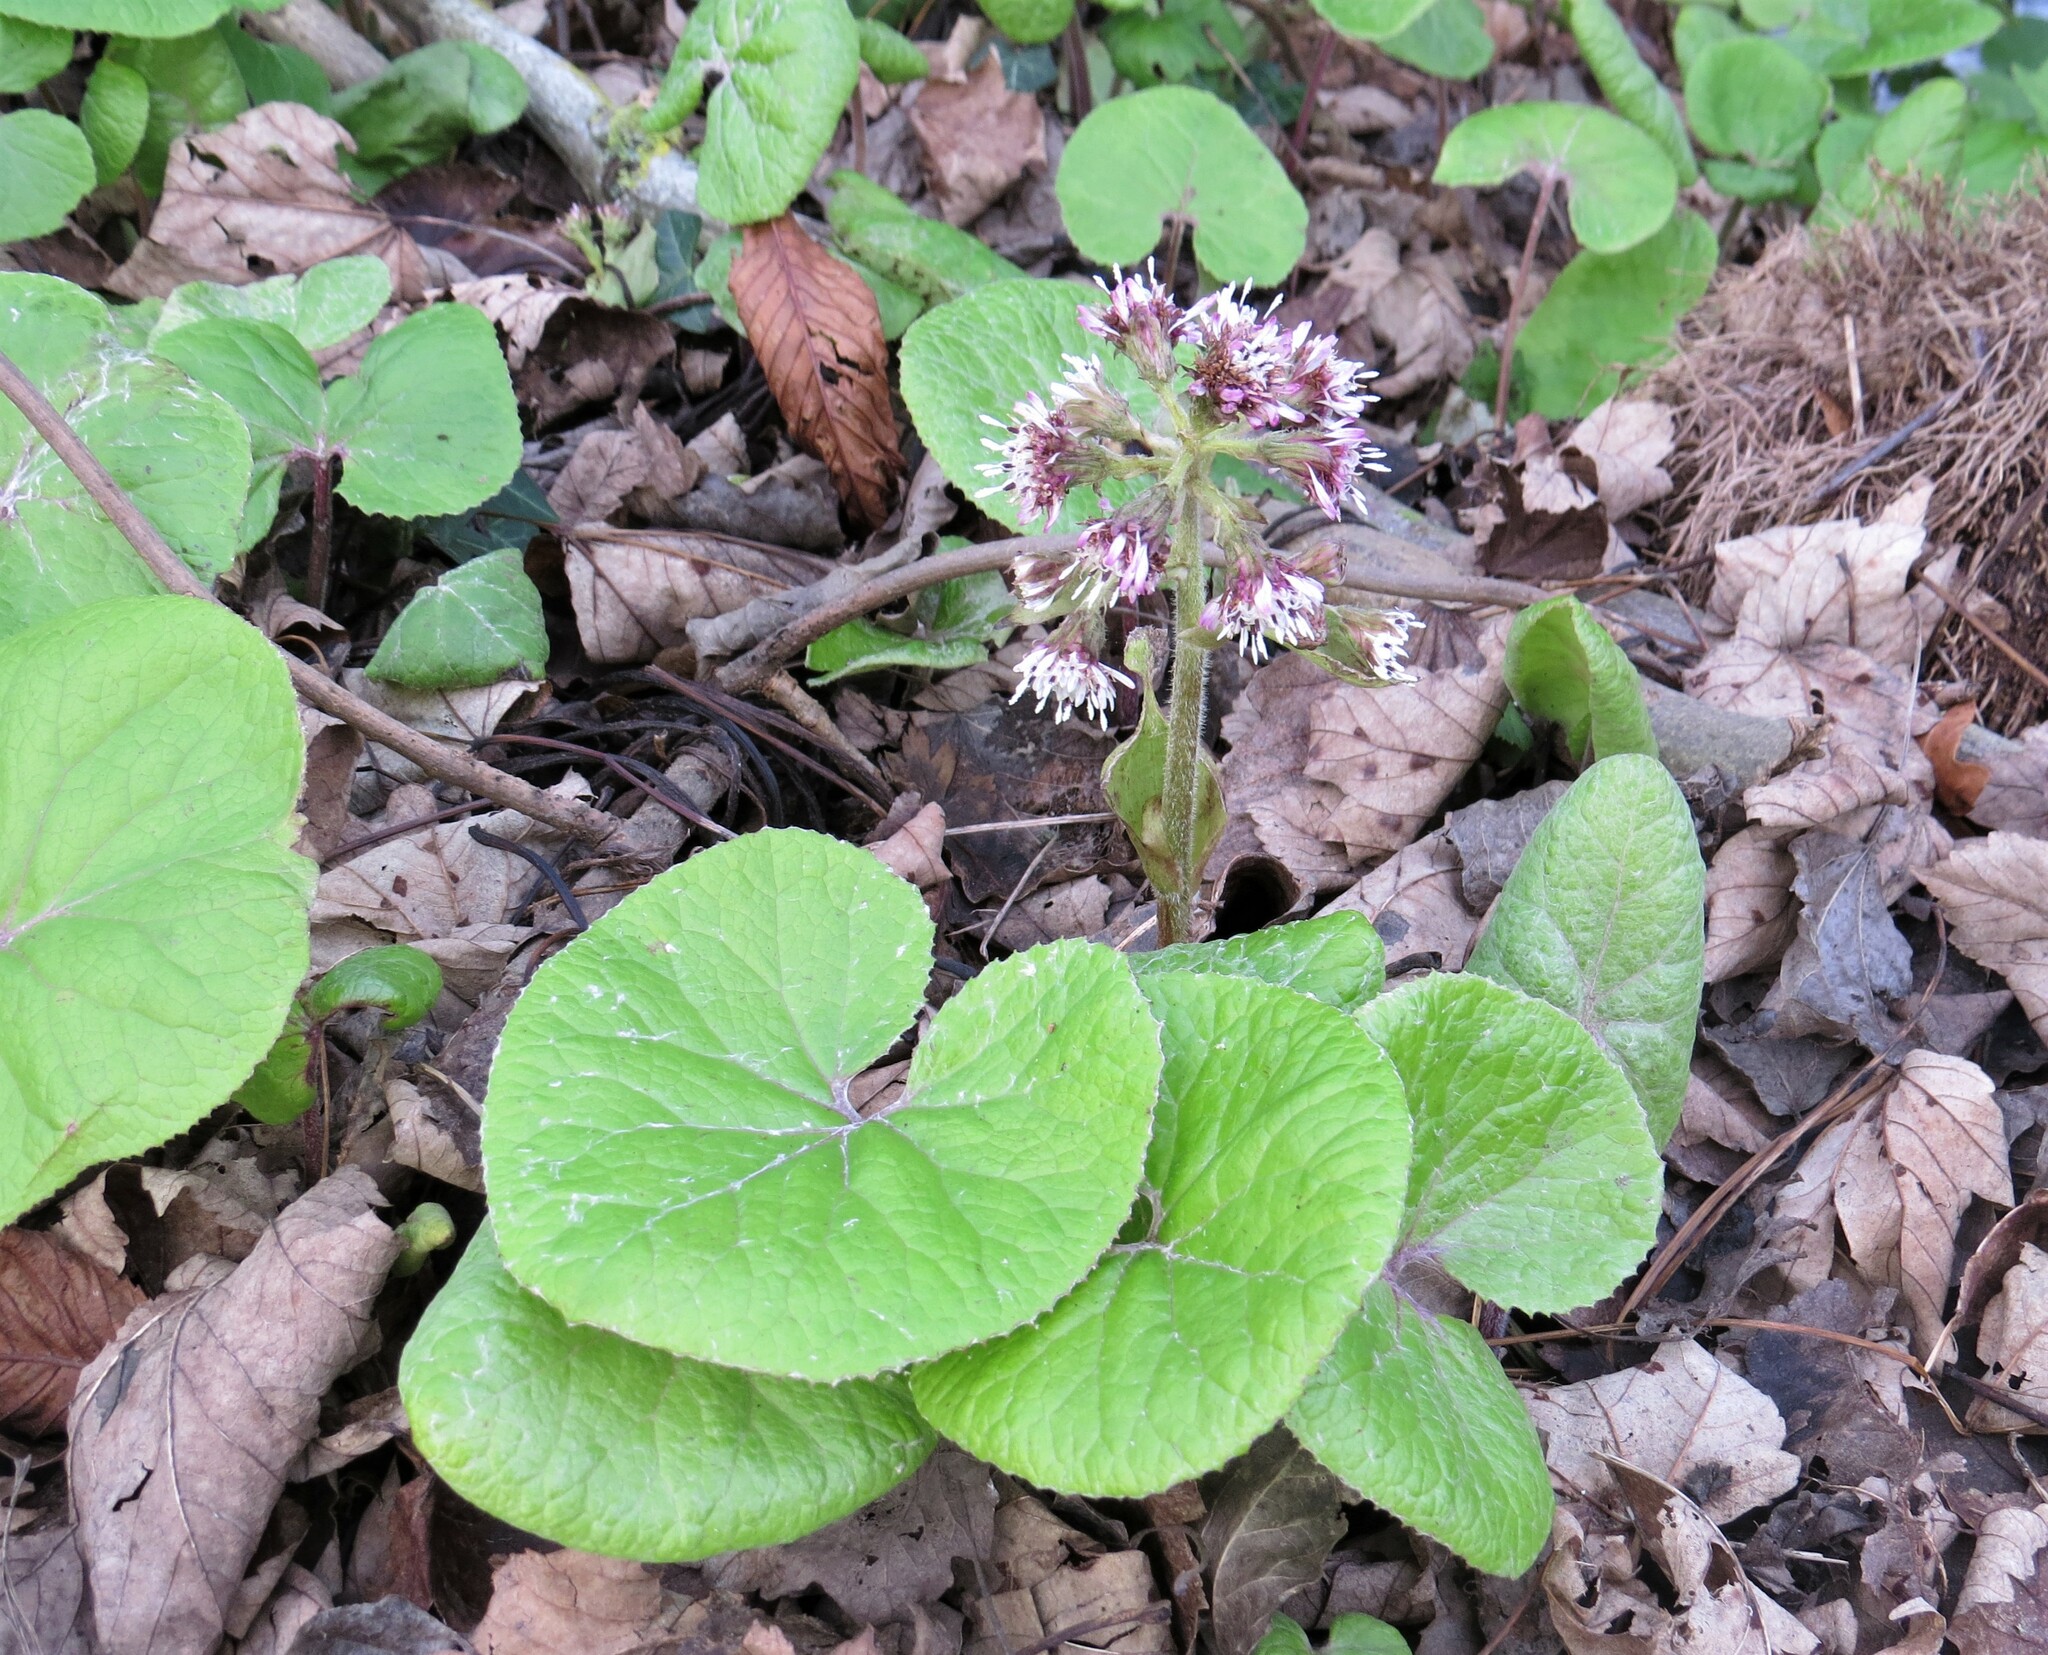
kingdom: Plantae
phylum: Tracheophyta
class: Magnoliopsida
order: Asterales
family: Asteraceae
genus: Petasites
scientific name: Petasites pyrenaicus
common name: Winter heliotrope
